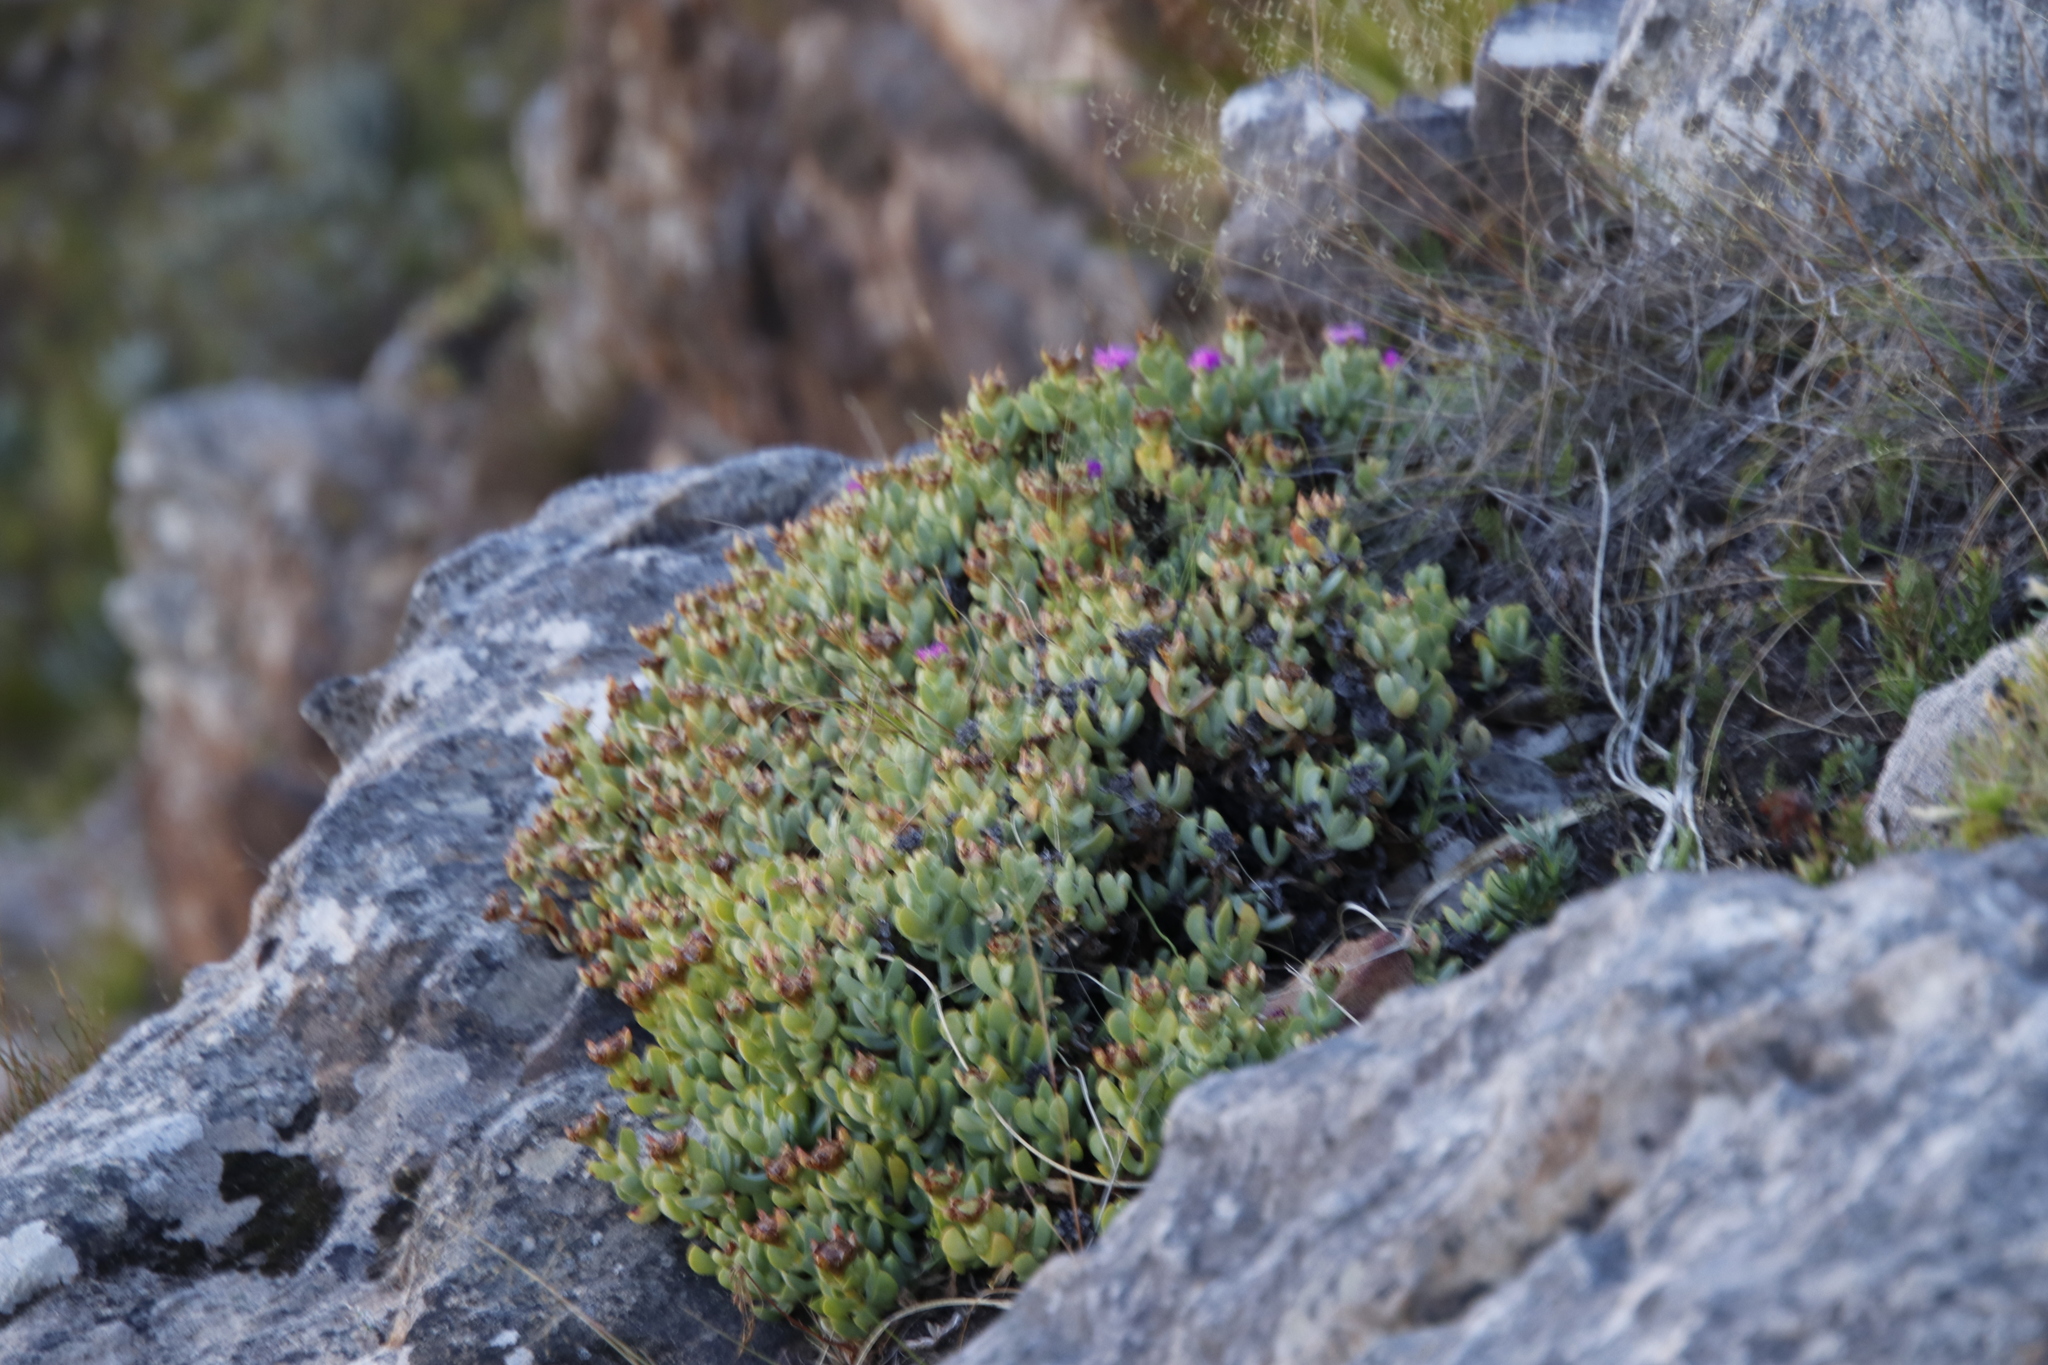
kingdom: Plantae
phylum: Tracheophyta
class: Magnoliopsida
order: Caryophyllales
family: Aizoaceae
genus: Erepsia
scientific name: Erepsia lacera
